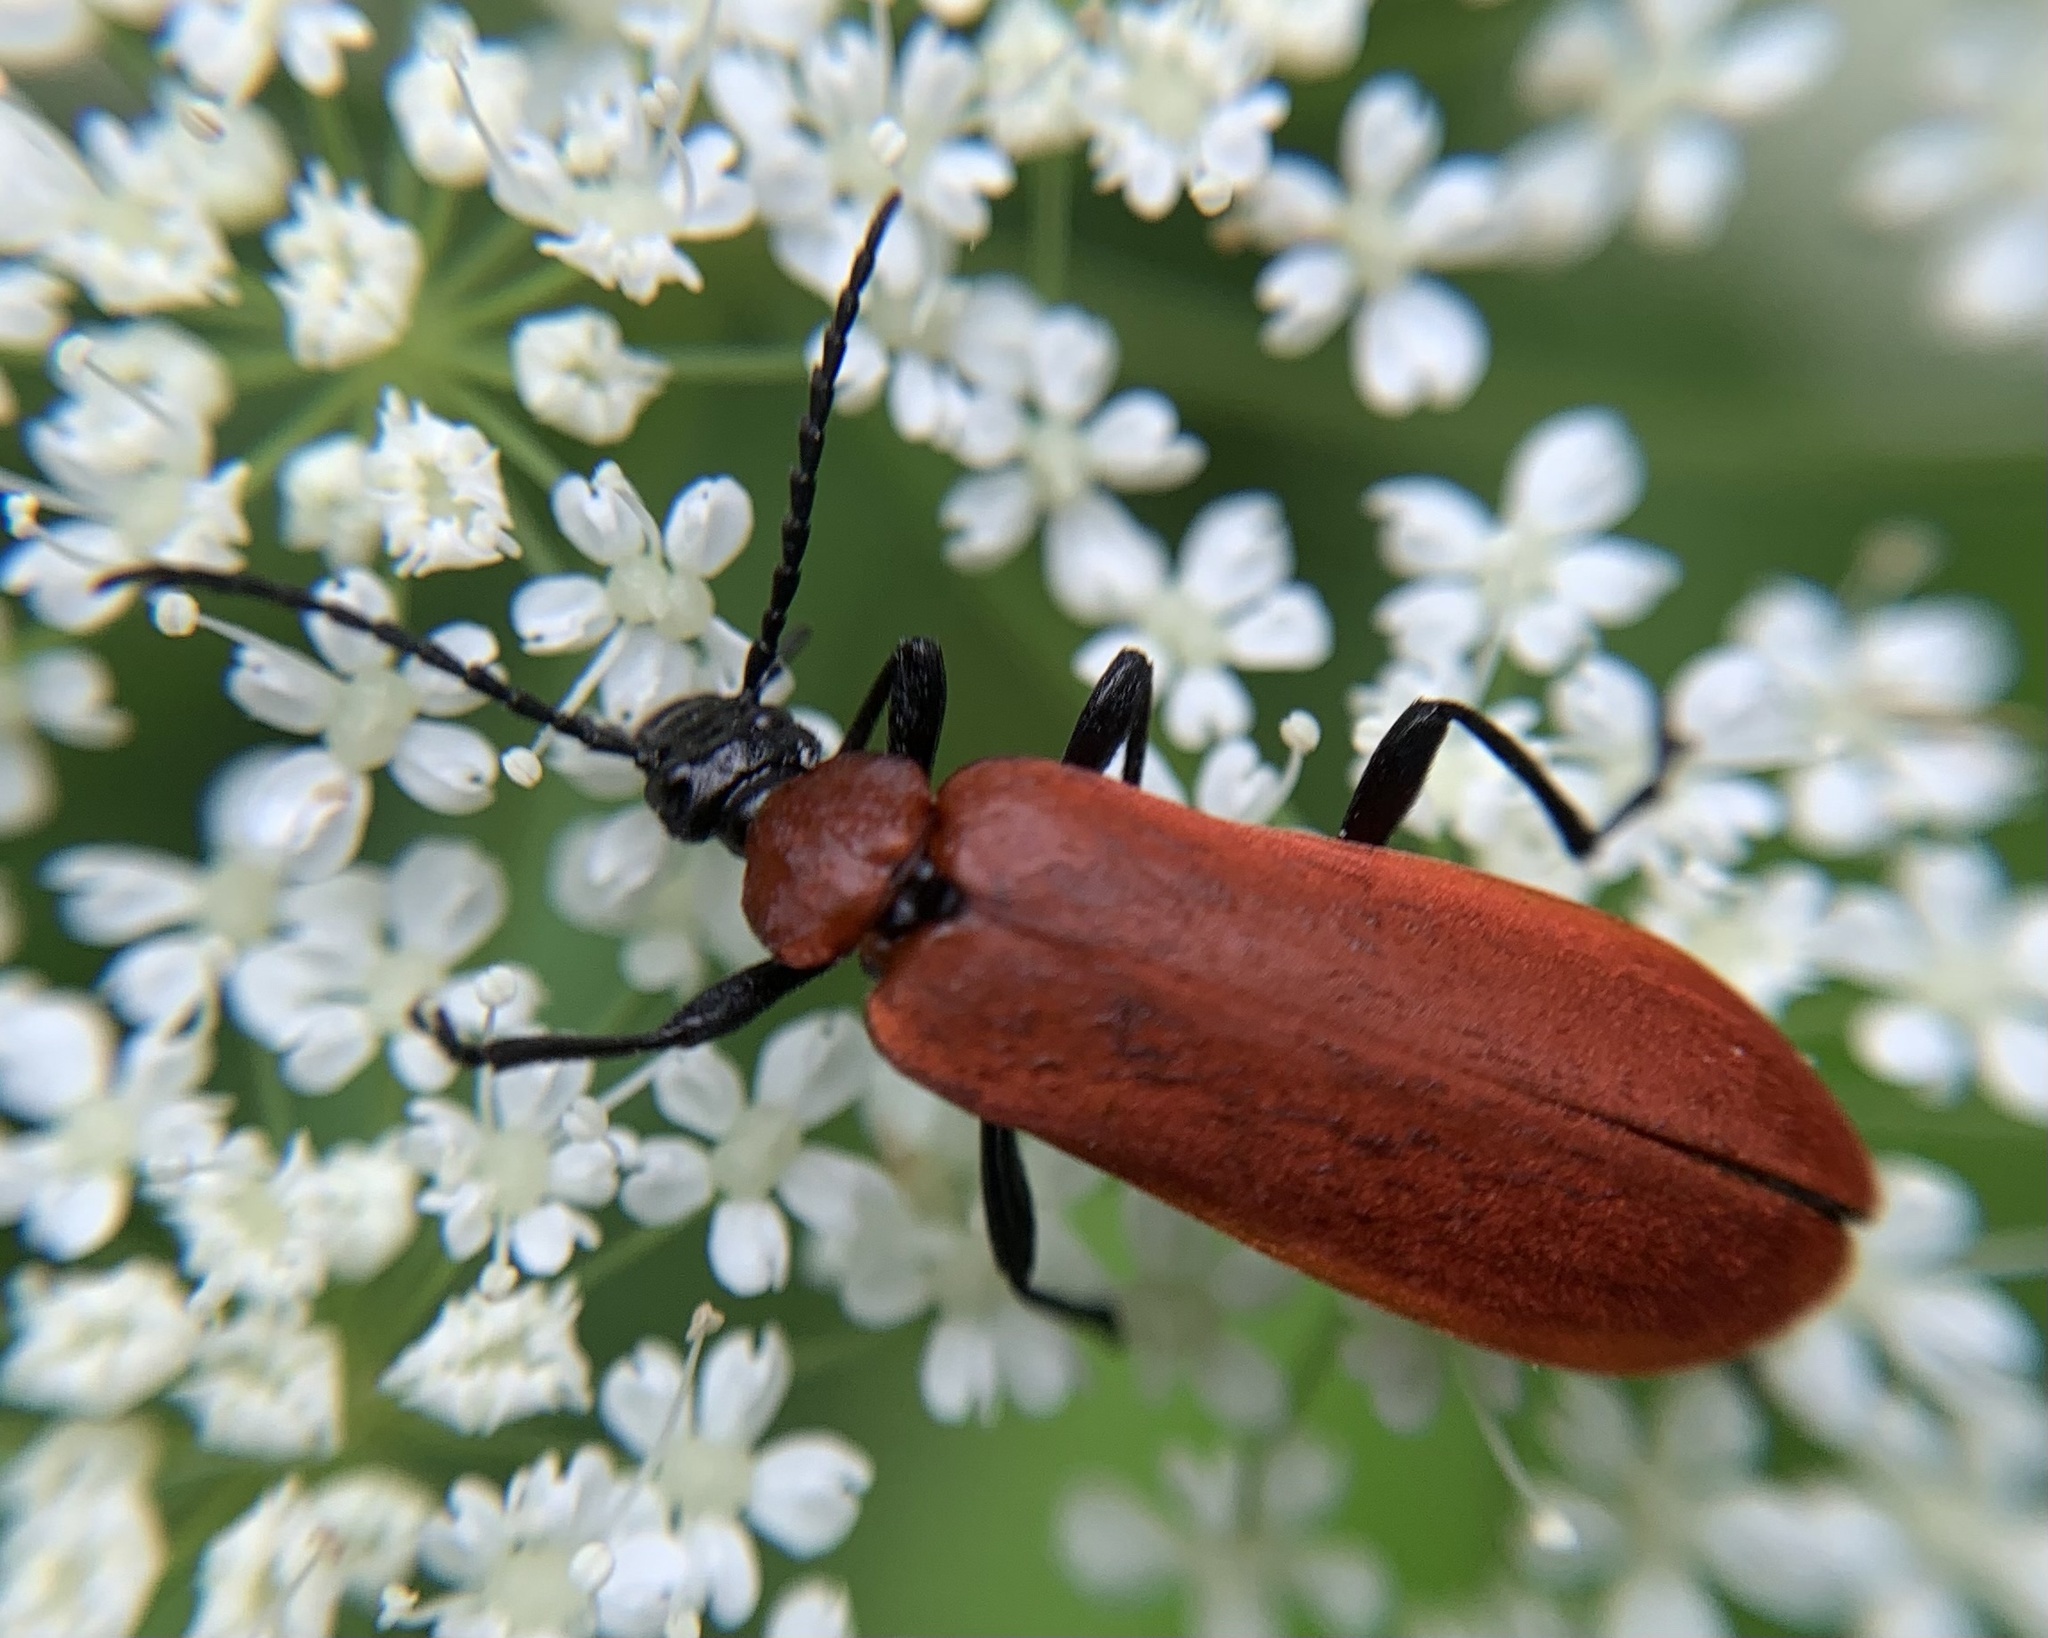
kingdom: Animalia
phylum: Arthropoda
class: Insecta
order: Coleoptera
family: Pyrochroidae
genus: Pyrochroa
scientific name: Pyrochroa coccinea
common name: Black-headed cardinal beetle
